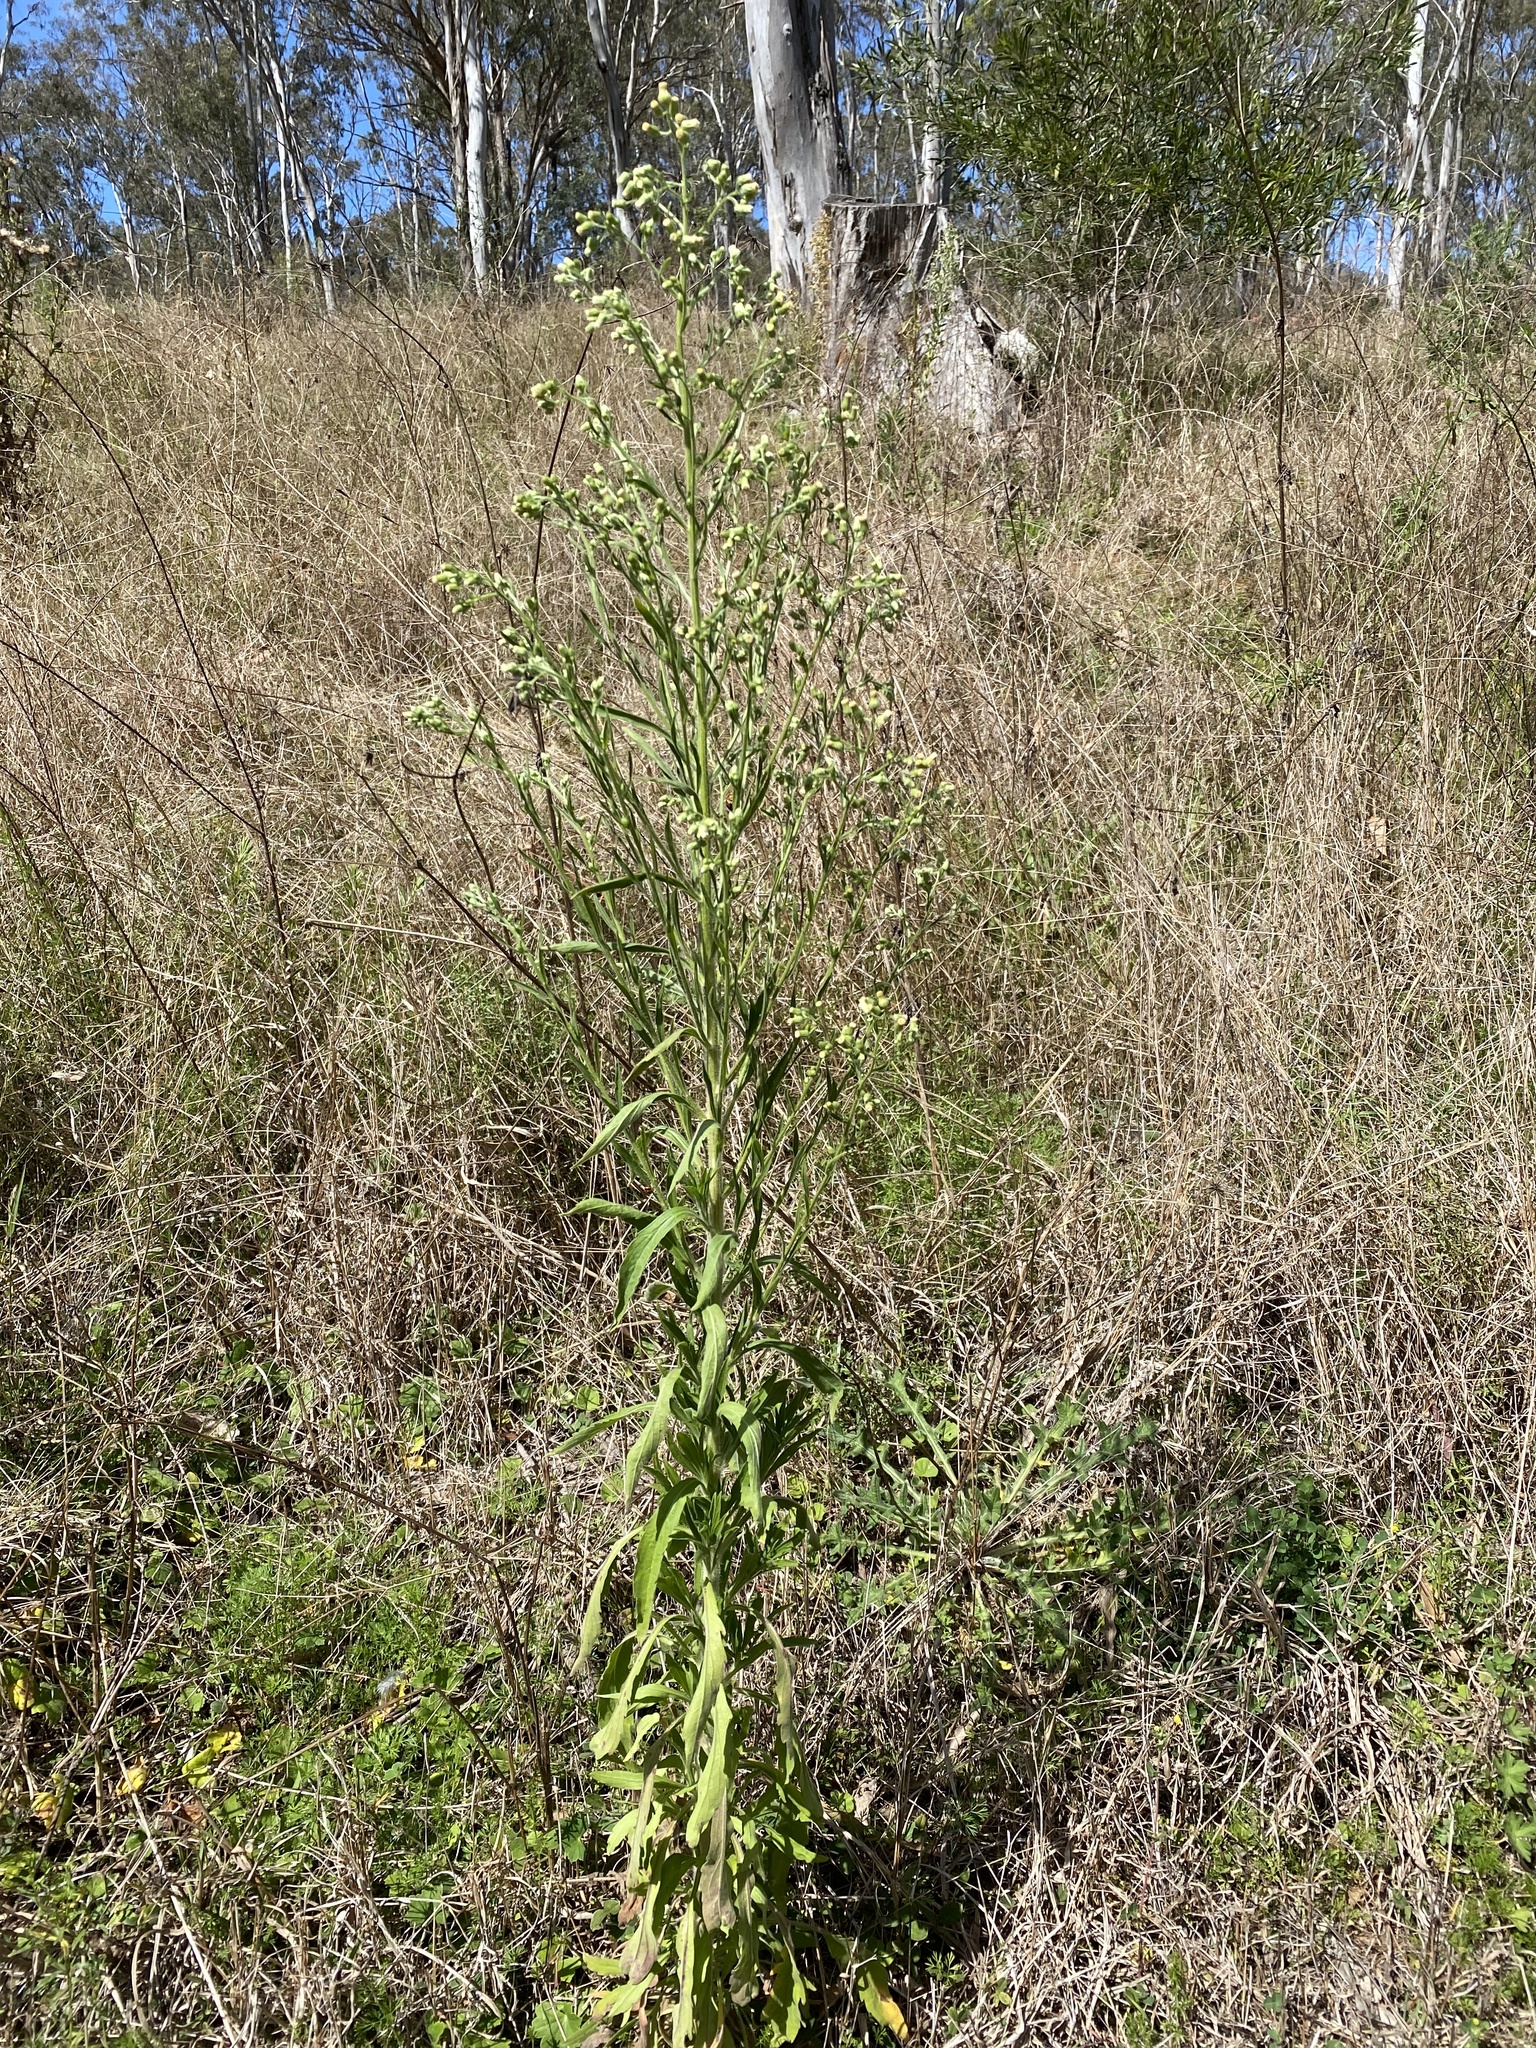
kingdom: Plantae
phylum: Tracheophyta
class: Magnoliopsida
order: Asterales
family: Asteraceae
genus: Erigeron
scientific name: Erigeron sumatrensis
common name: Daisy
